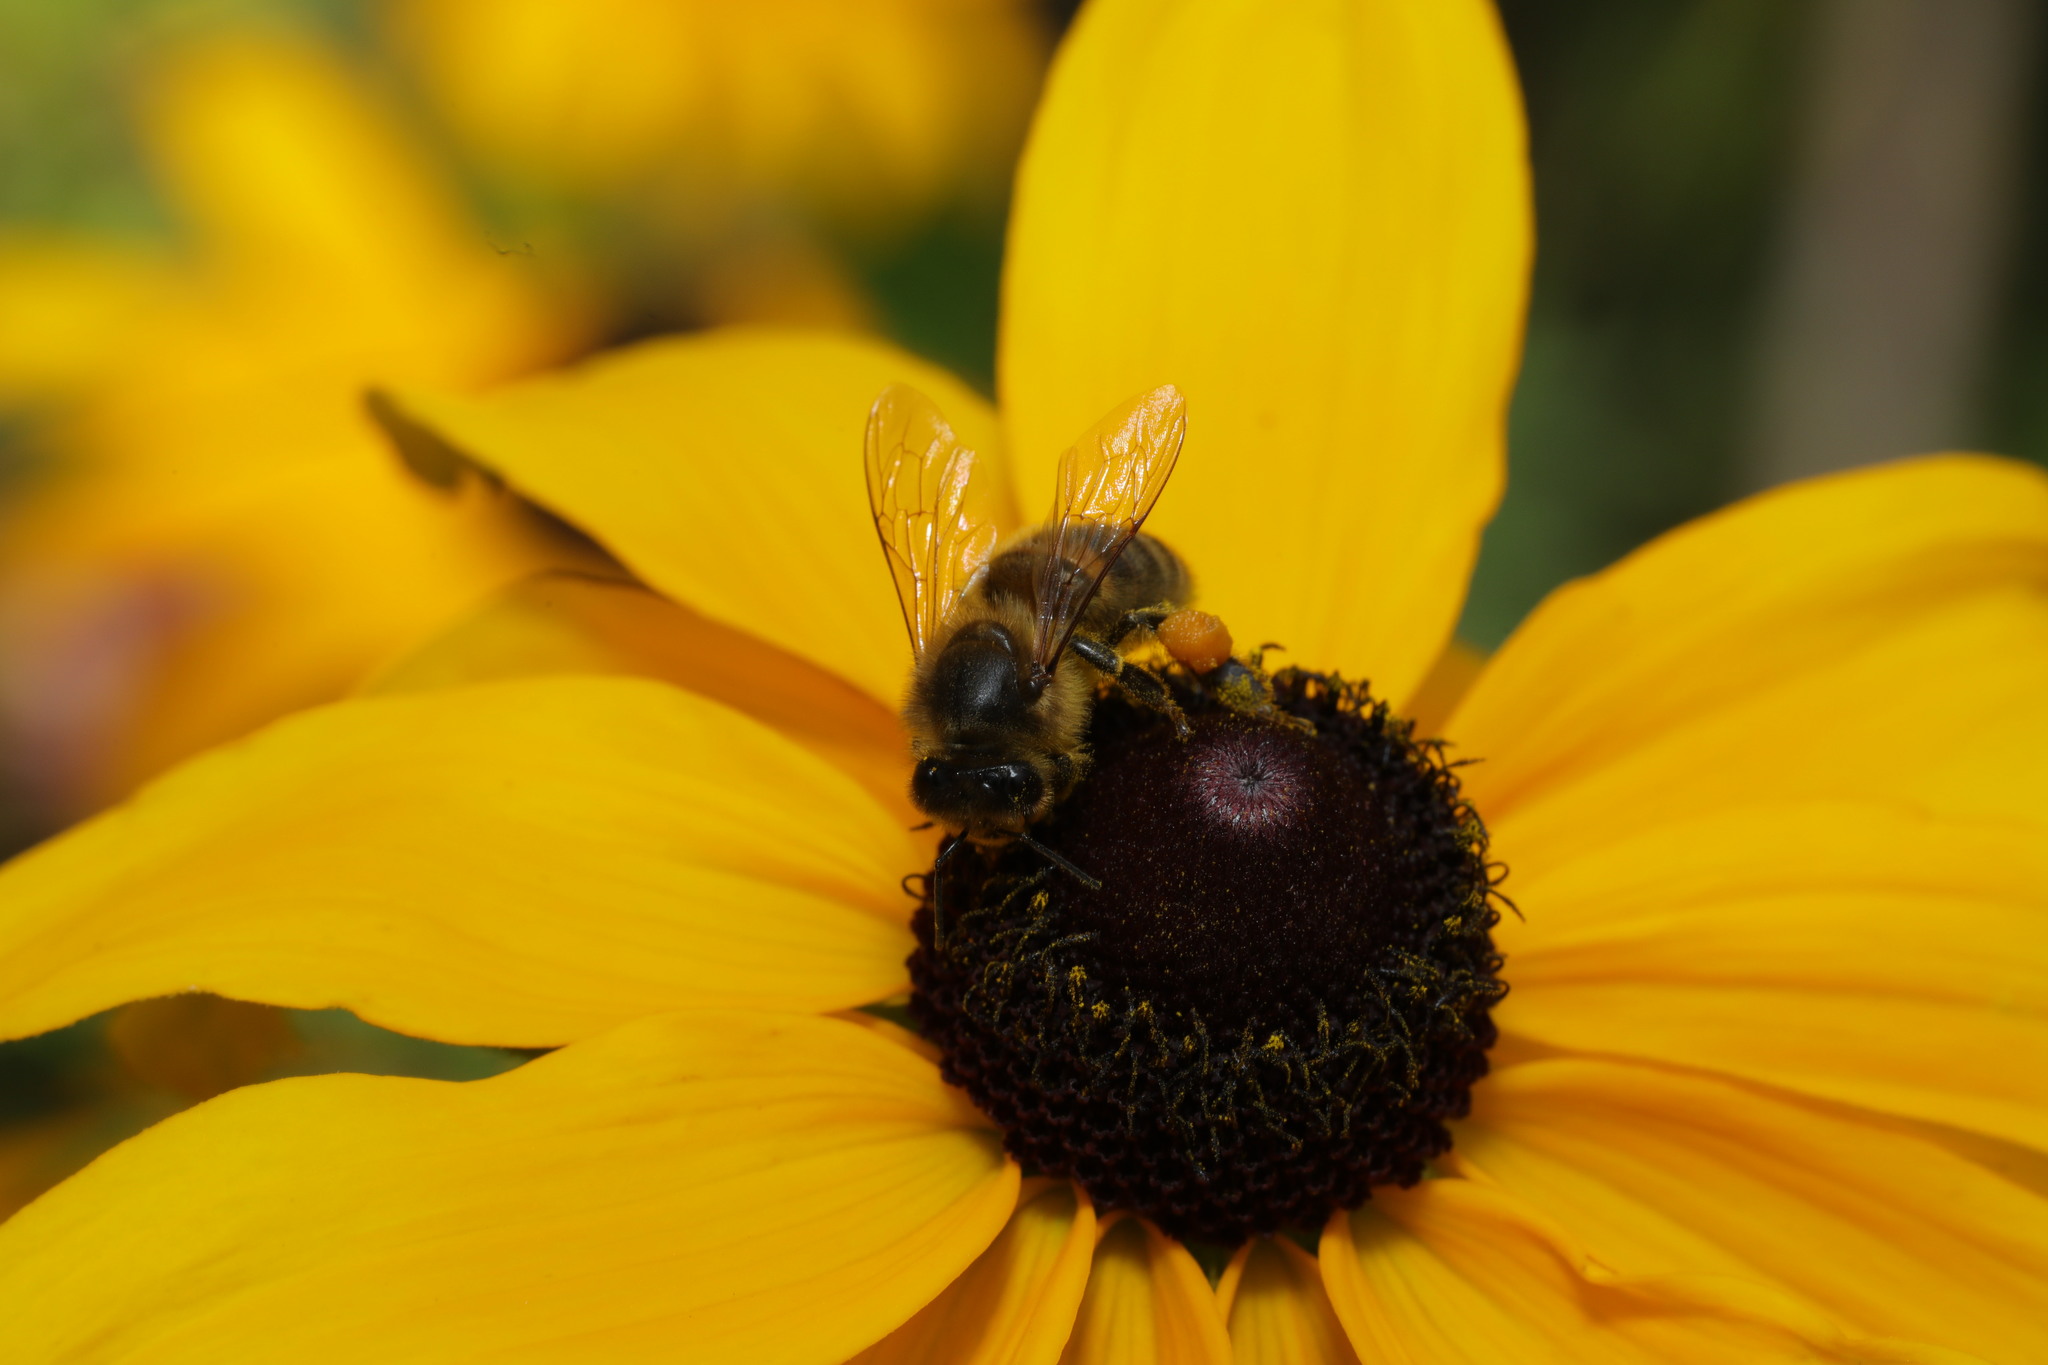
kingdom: Animalia
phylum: Arthropoda
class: Insecta
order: Hymenoptera
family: Apidae
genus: Apis
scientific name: Apis mellifera
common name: Honey bee
